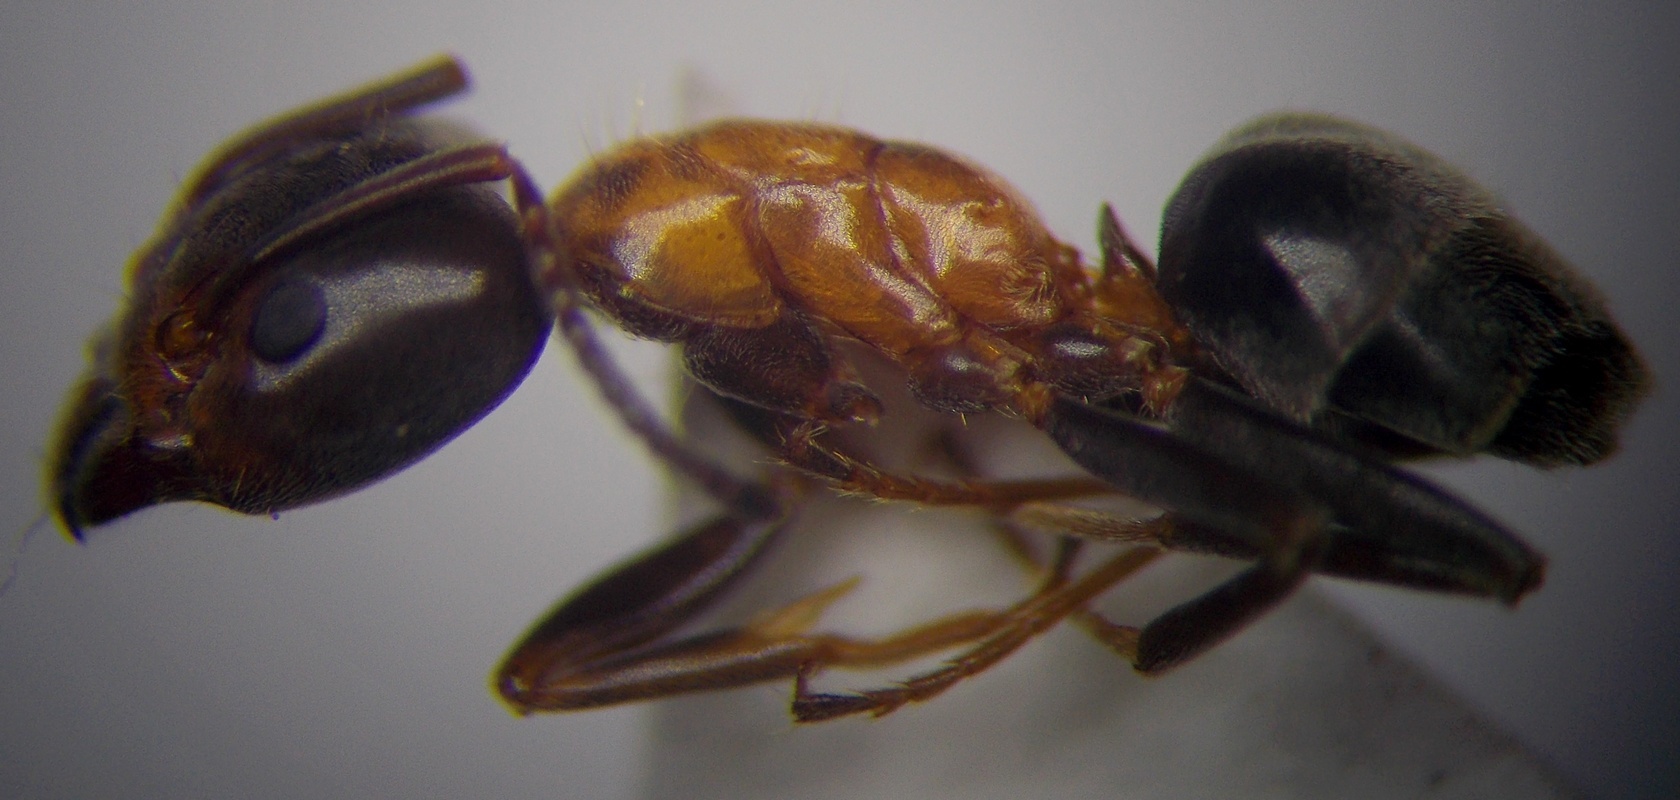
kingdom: Animalia
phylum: Arthropoda
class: Insecta
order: Hymenoptera
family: Formicidae
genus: Liometopum
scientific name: Liometopum microcephalum
